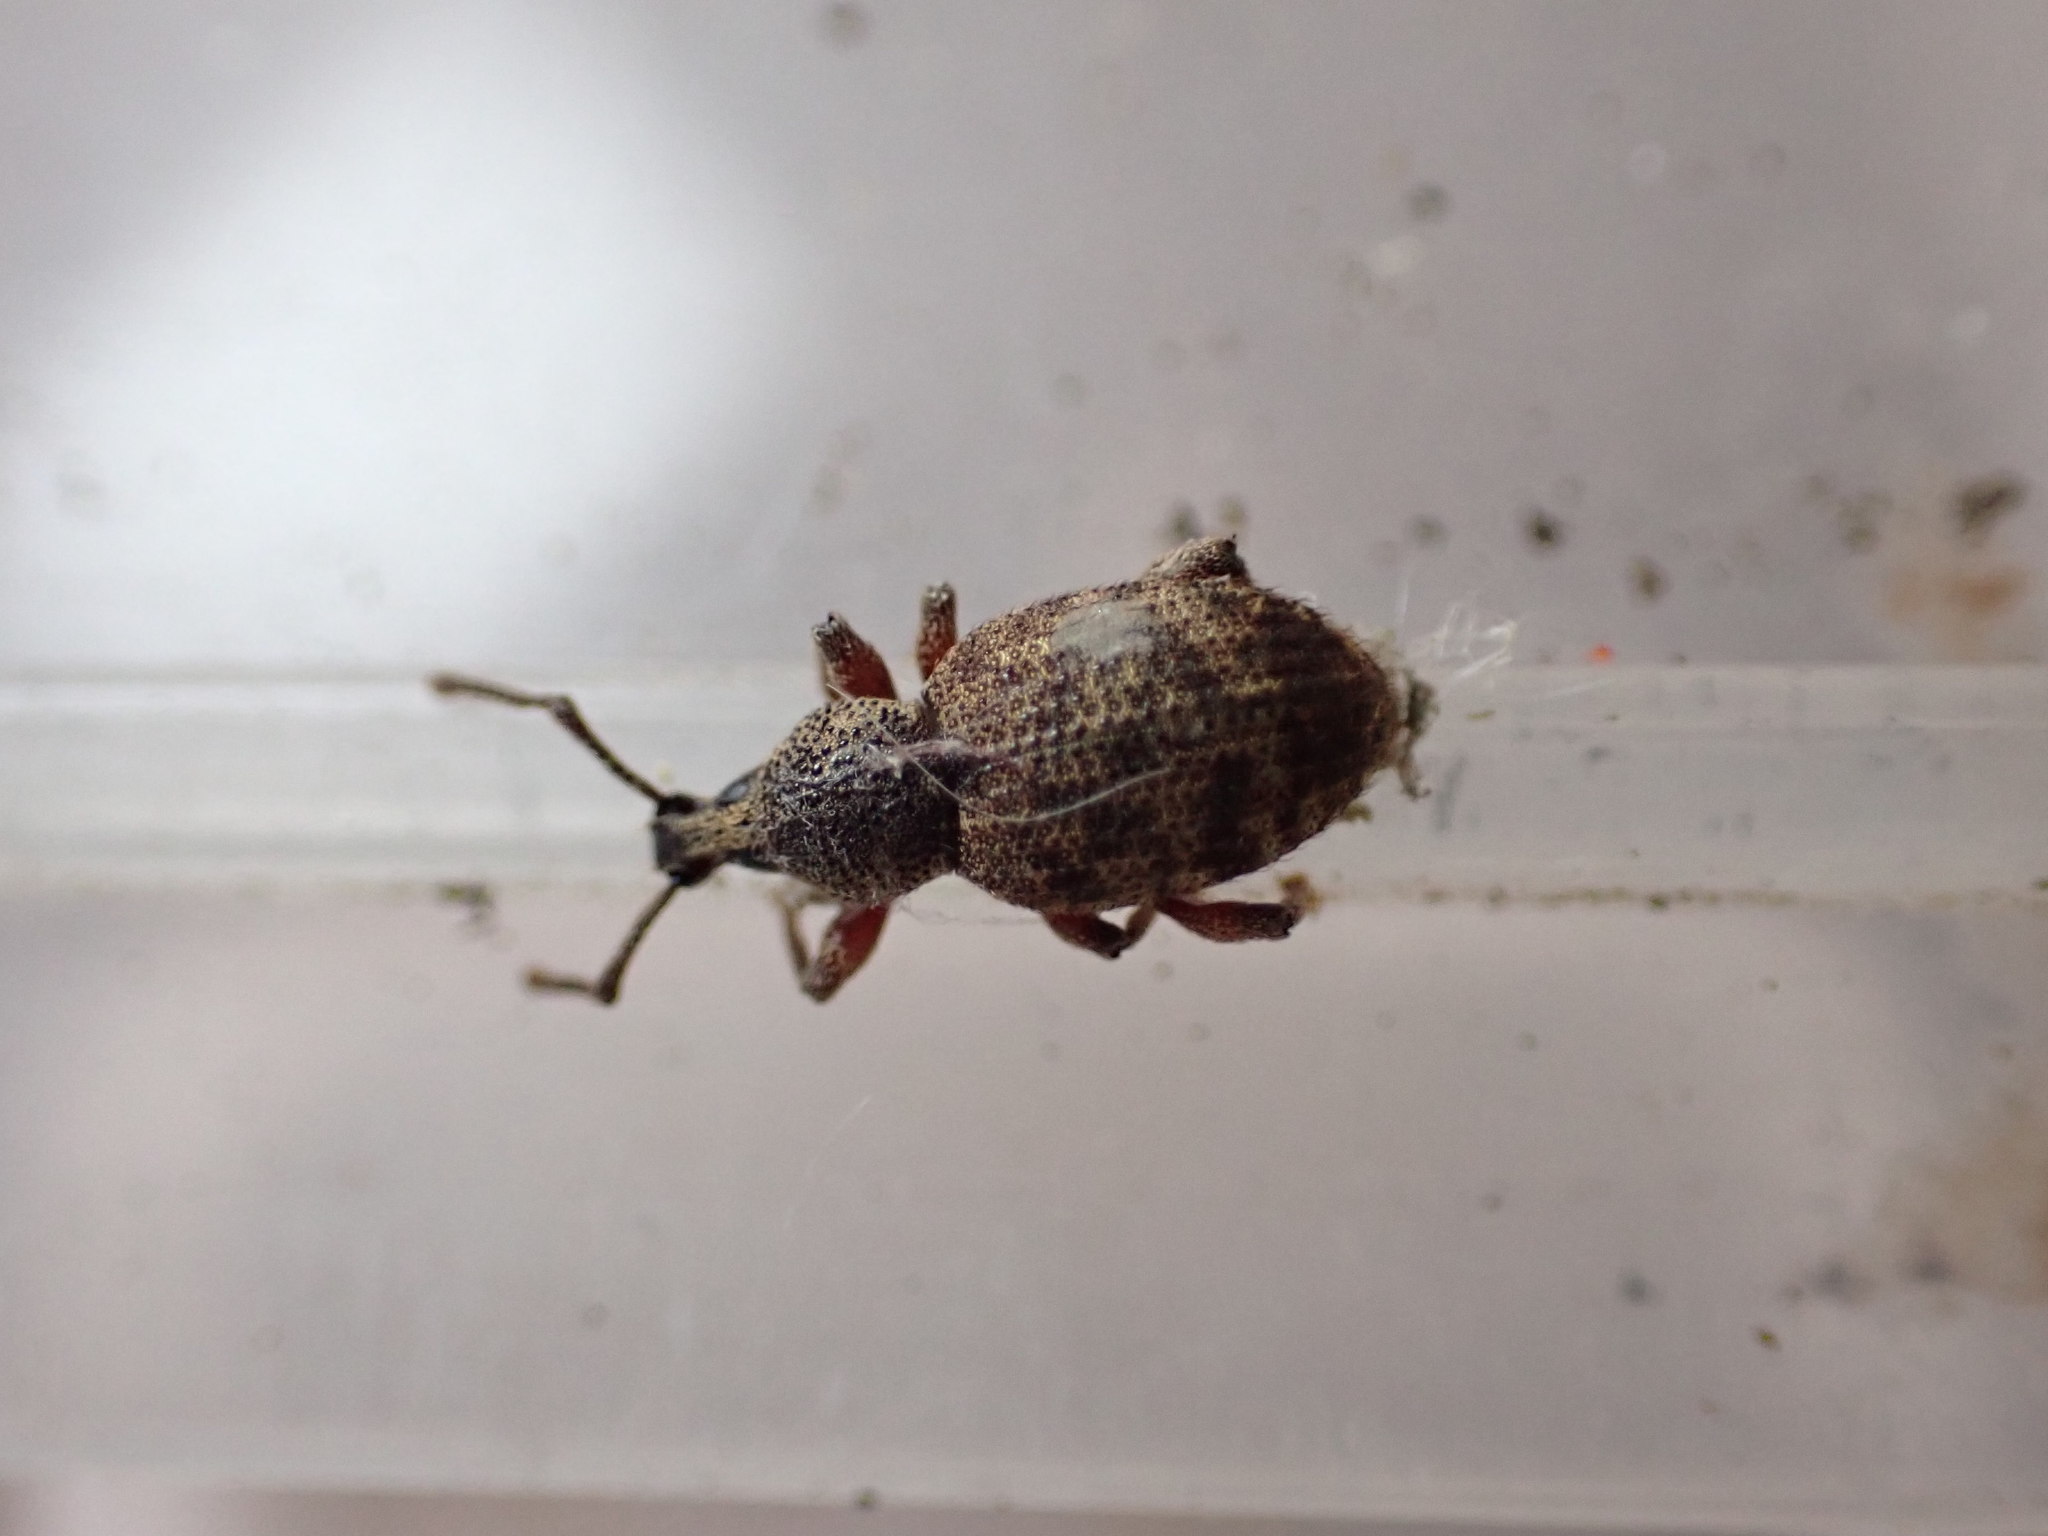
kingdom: Animalia
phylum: Arthropoda
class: Insecta
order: Coleoptera
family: Curculionidae
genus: Otiorhynchus
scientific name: Otiorhynchus singularis
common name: Clay-coloured weevil
